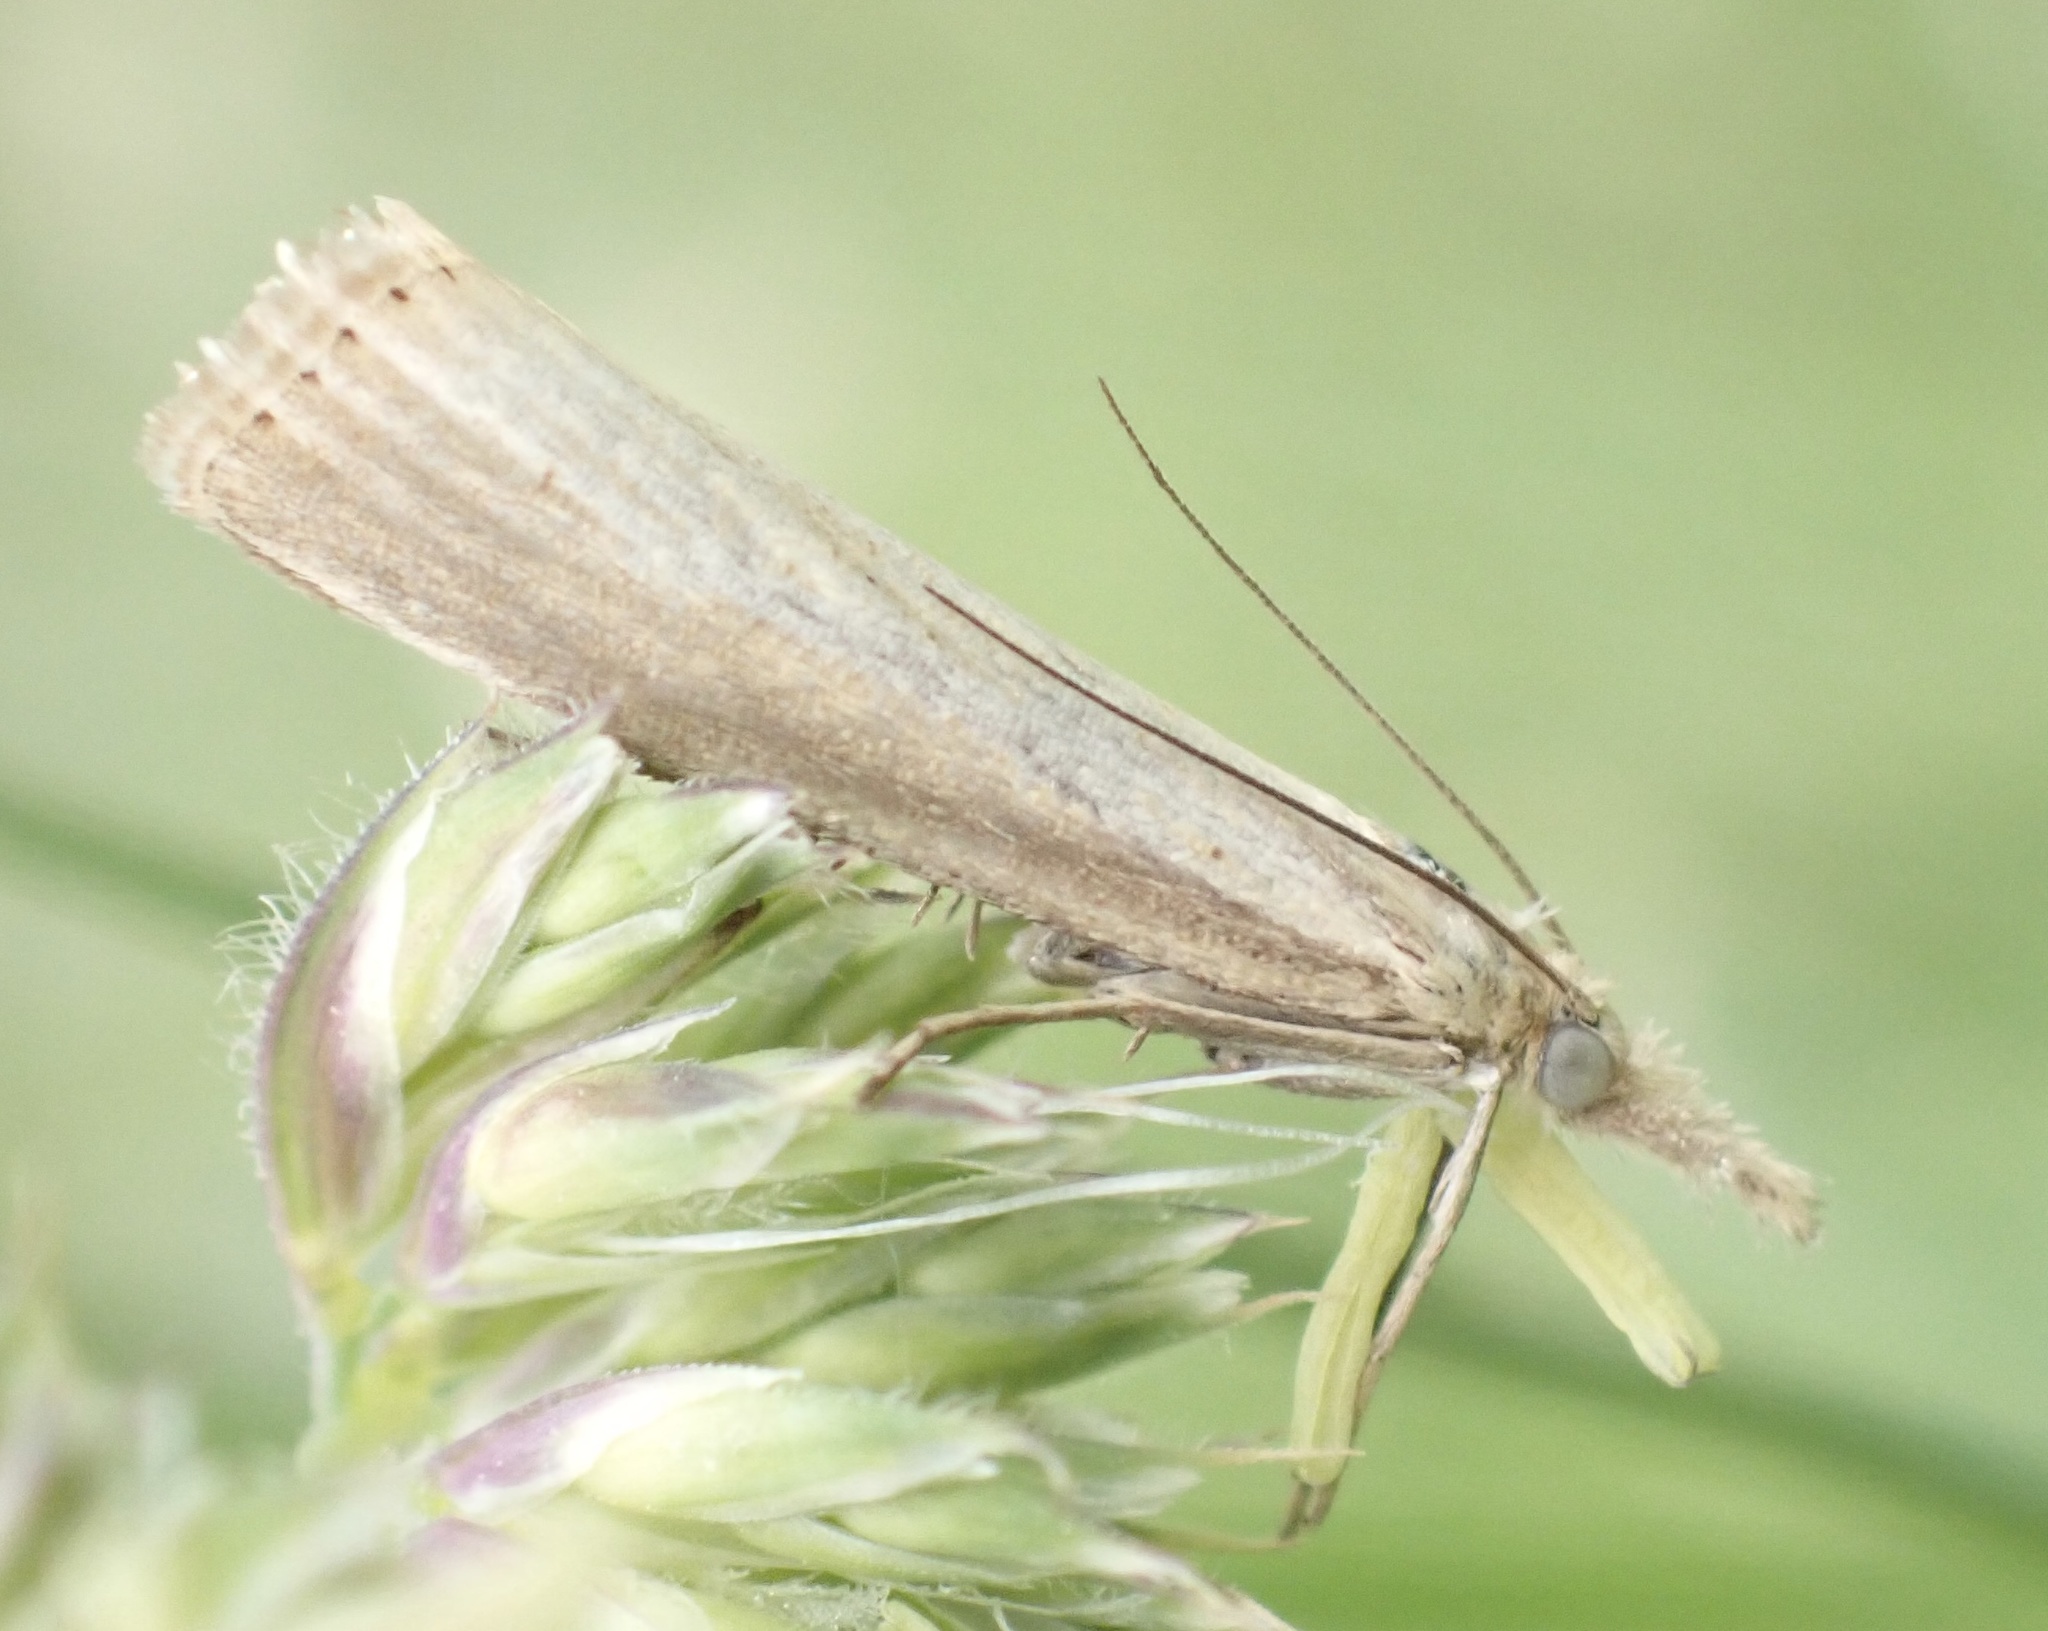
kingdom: Animalia
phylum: Arthropoda
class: Insecta
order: Lepidoptera
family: Crambidae
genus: Agriphila
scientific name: Agriphila straminella
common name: Straw grass-veneer
